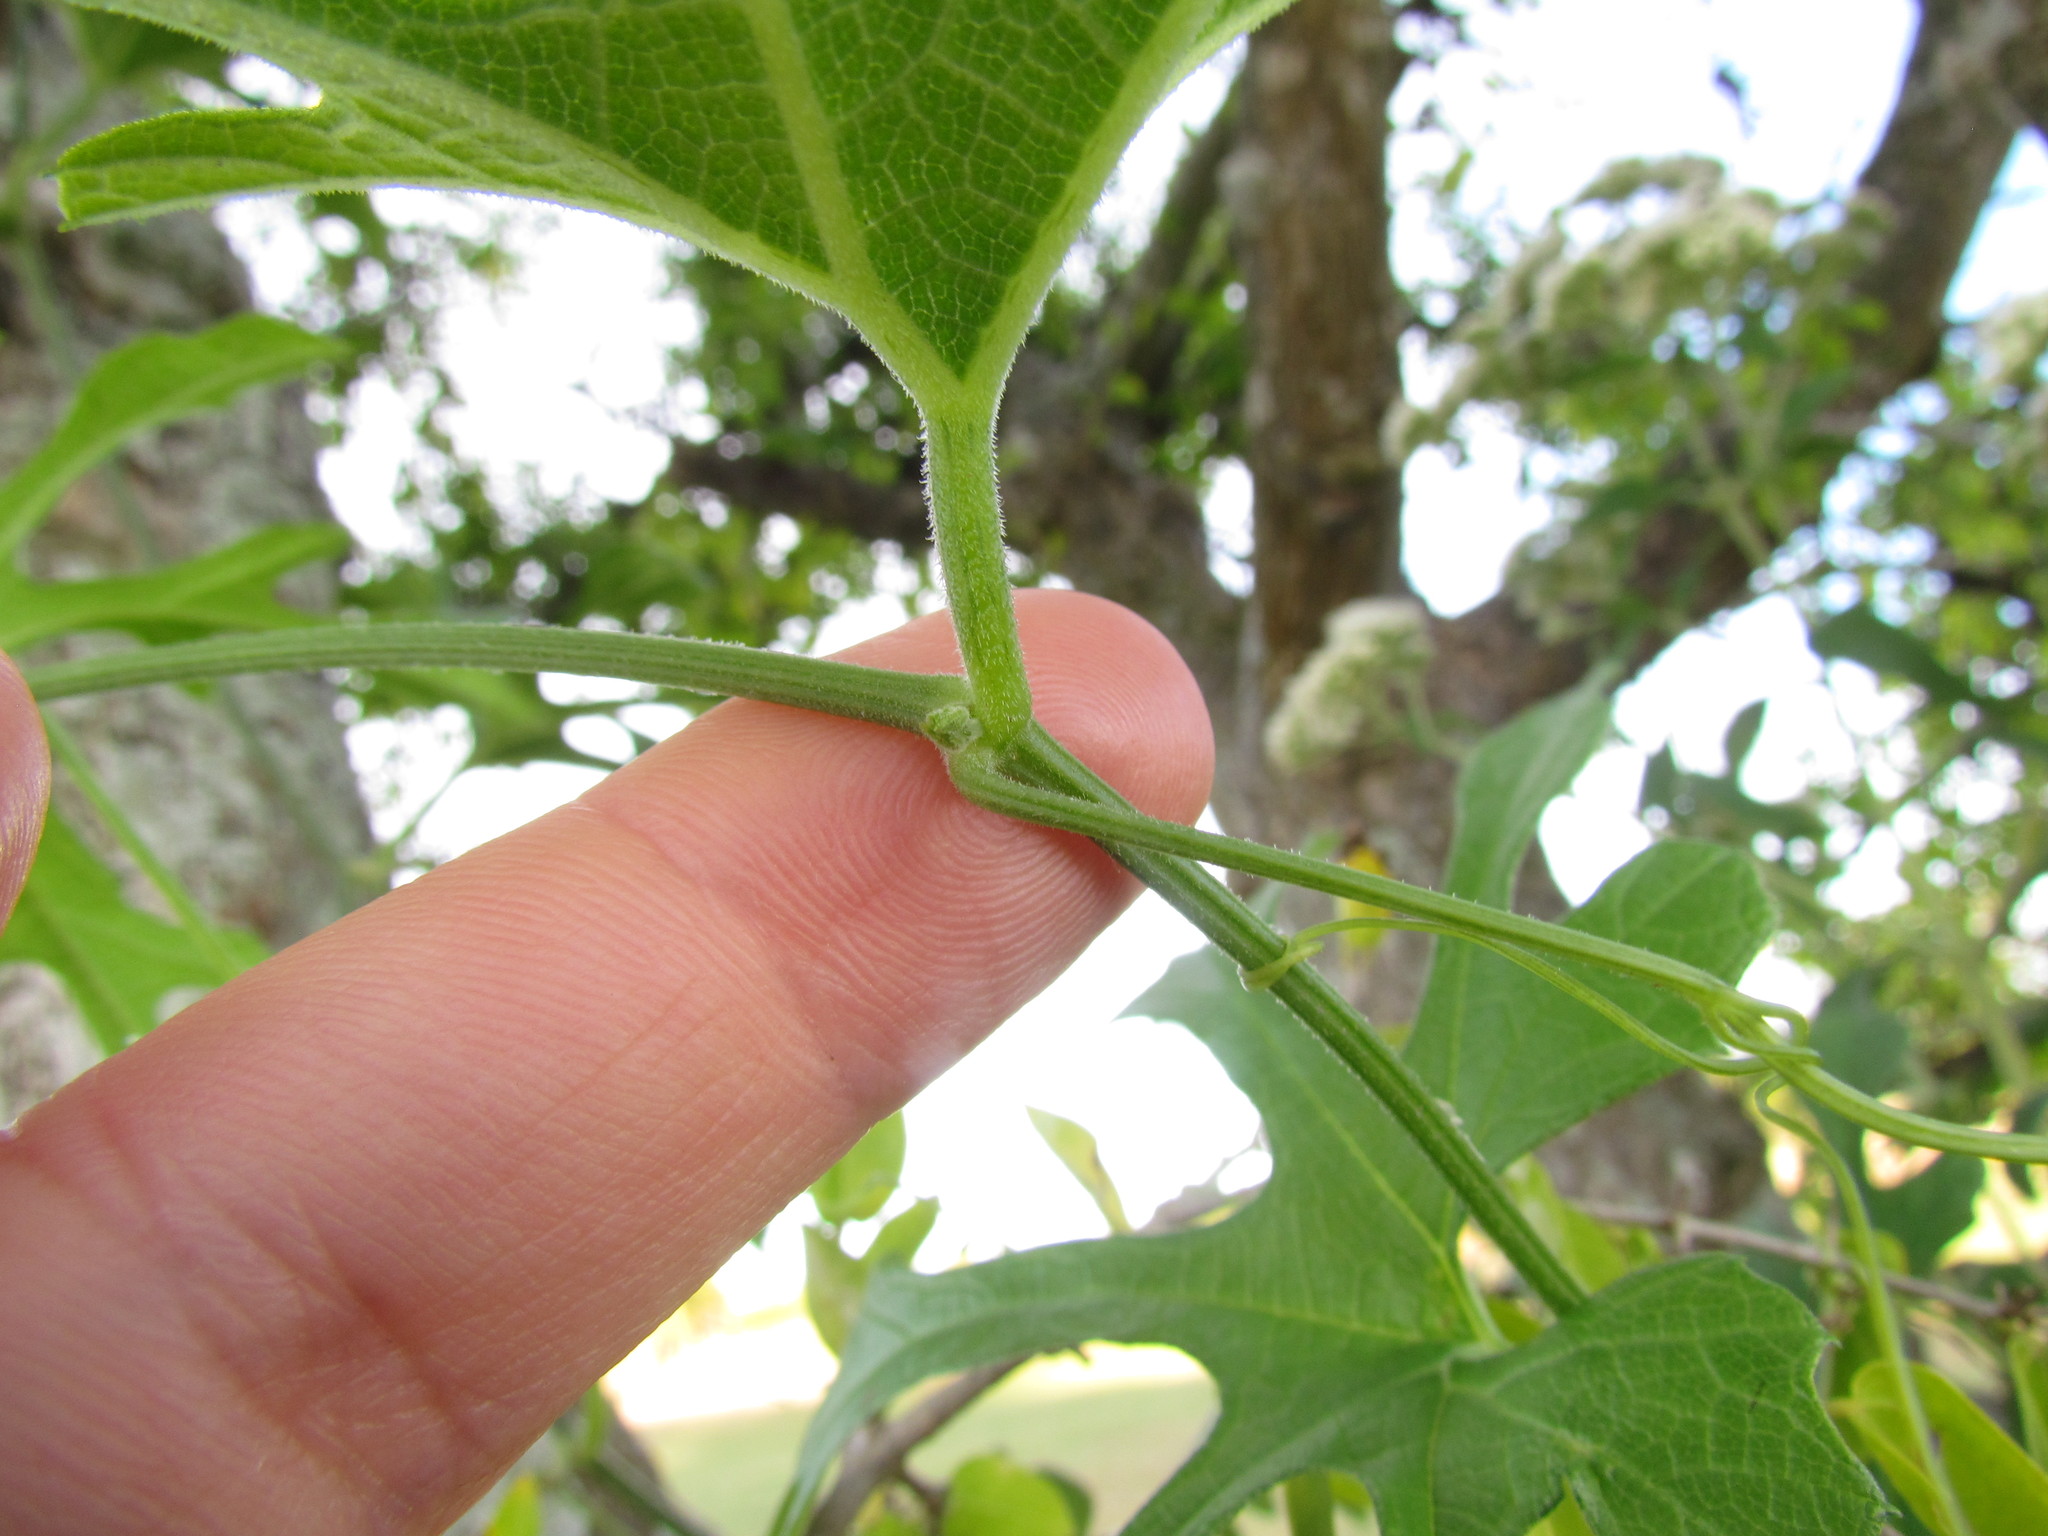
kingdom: Plantae
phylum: Tracheophyta
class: Magnoliopsida
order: Cucurbitales
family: Cucurbitaceae
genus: Cucurbitella
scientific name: Cucurbitella asperata
